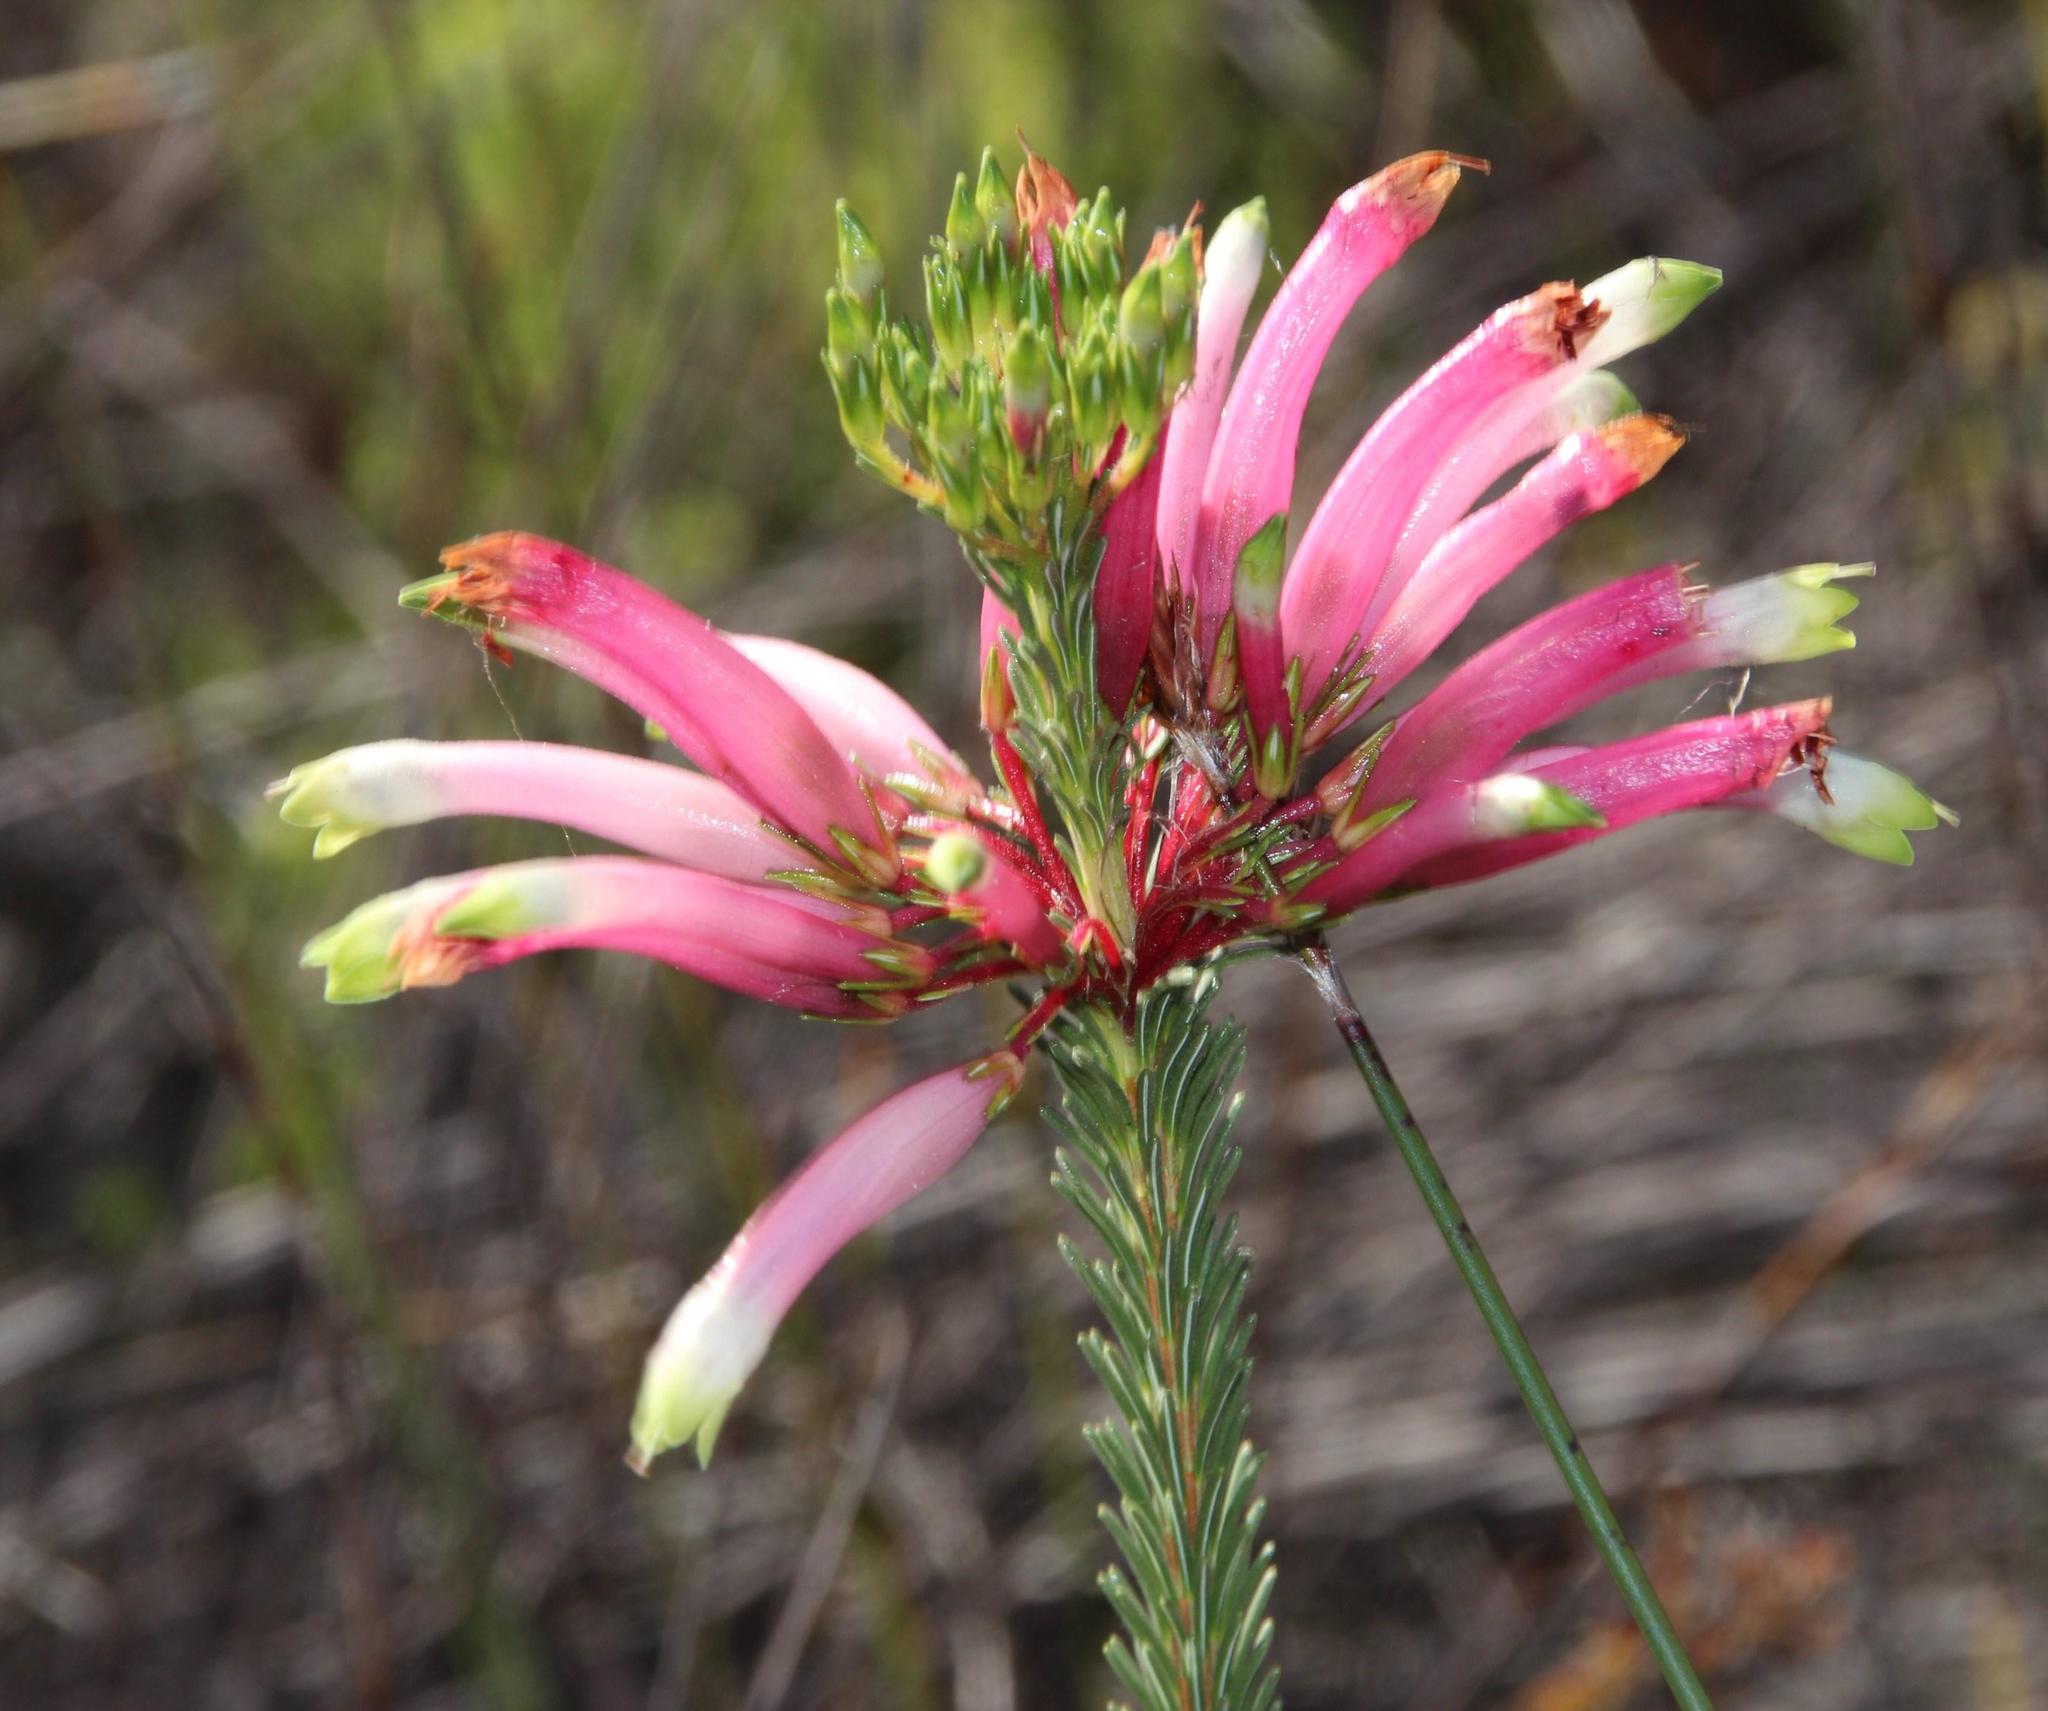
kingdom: Plantae
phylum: Tracheophyta
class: Magnoliopsida
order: Ericales
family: Ericaceae
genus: Erica
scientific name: Erica fascicularis
